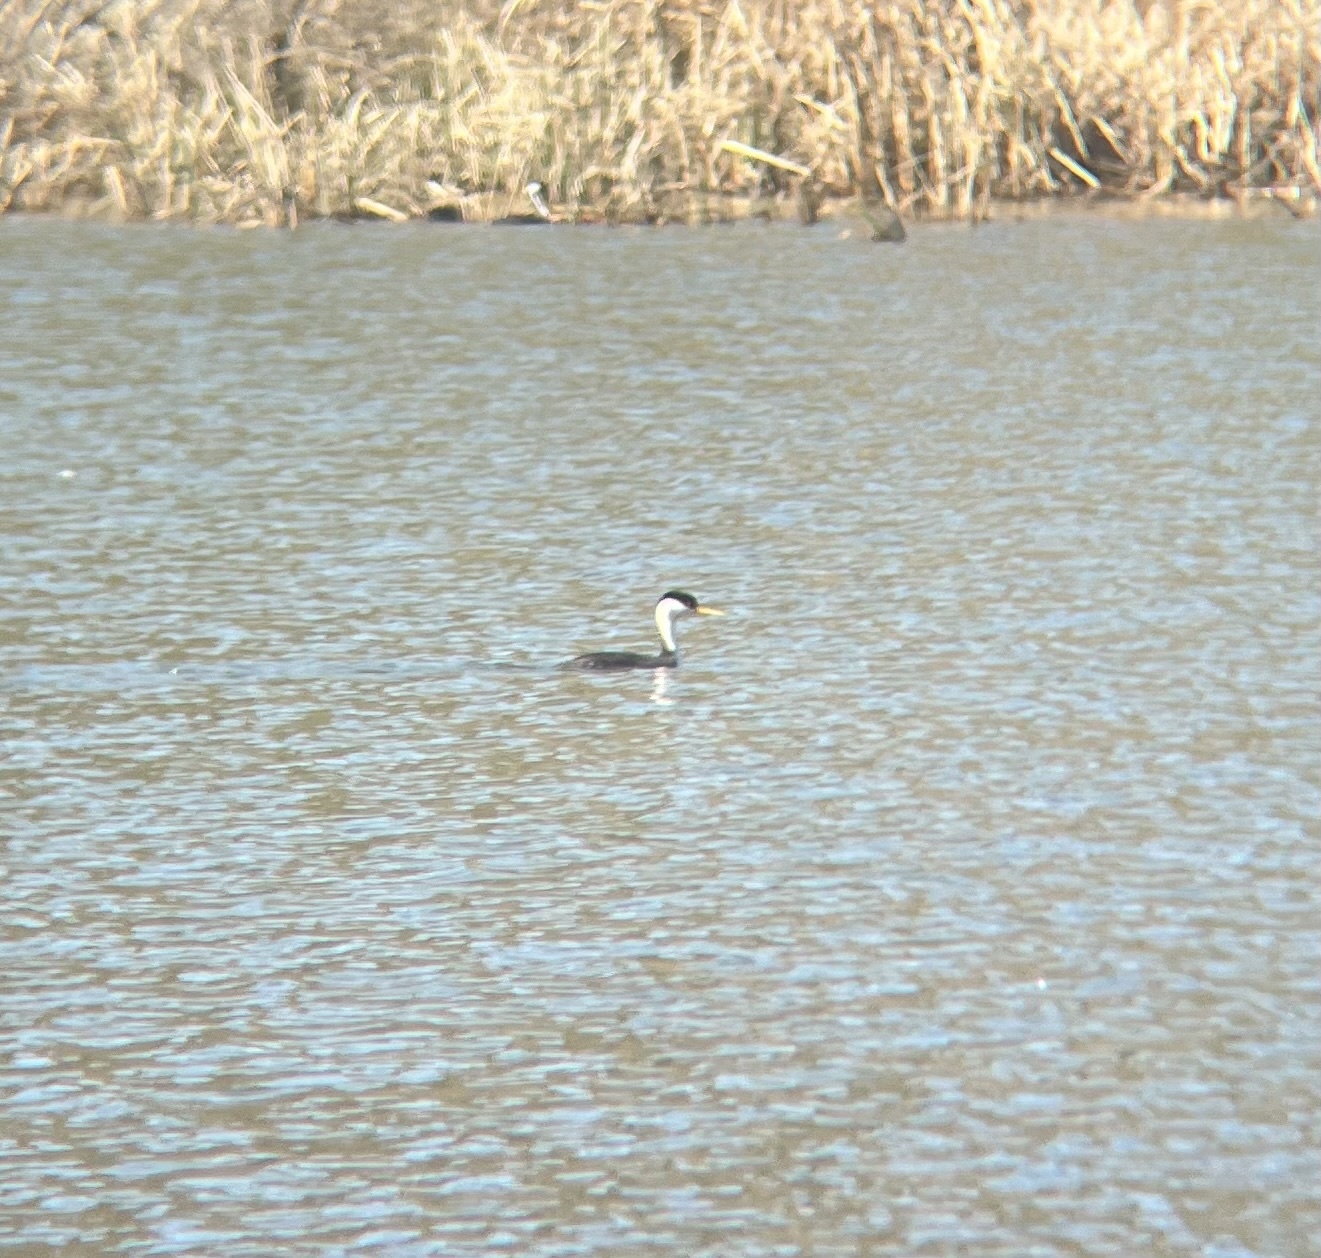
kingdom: Animalia
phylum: Chordata
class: Aves
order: Podicipediformes
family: Podicipedidae
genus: Aechmophorus
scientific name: Aechmophorus occidentalis
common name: Western grebe
